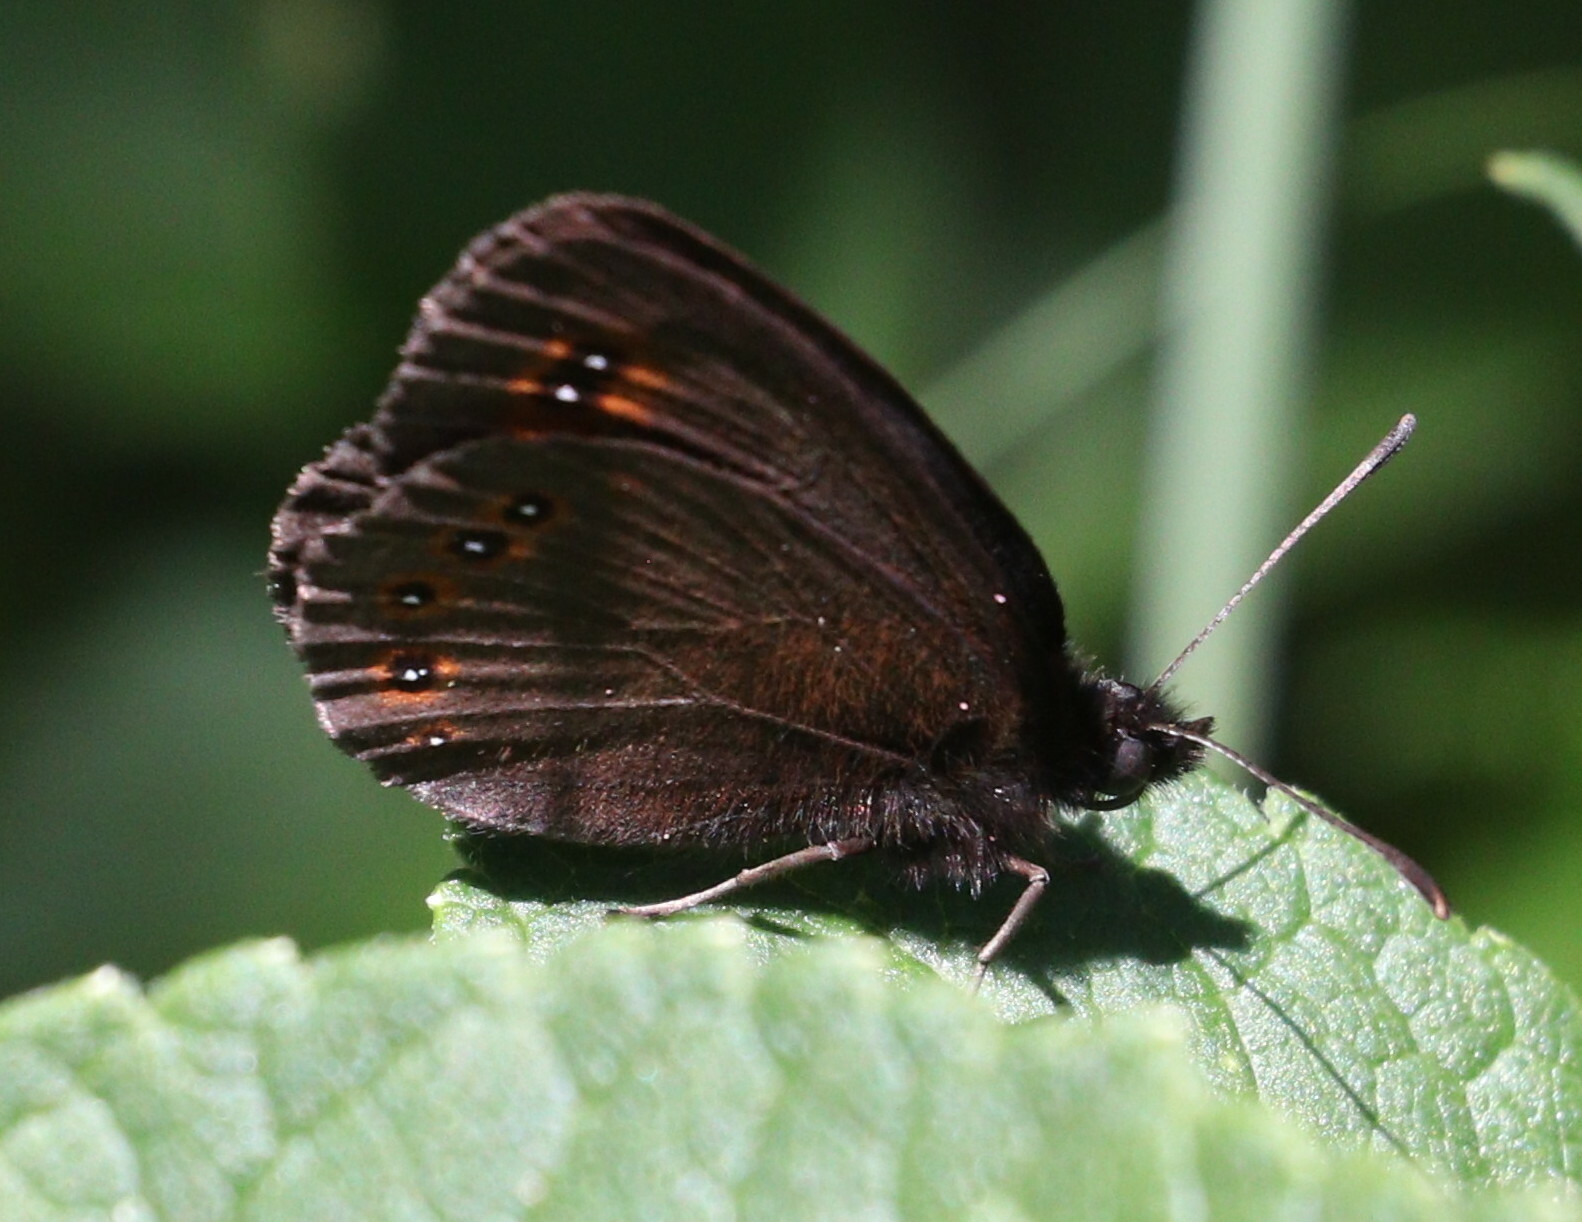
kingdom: Animalia
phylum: Arthropoda
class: Insecta
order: Lepidoptera
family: Nymphalidae
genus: Erebia
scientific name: Erebia oeme
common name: Bright-eyed ringlet
